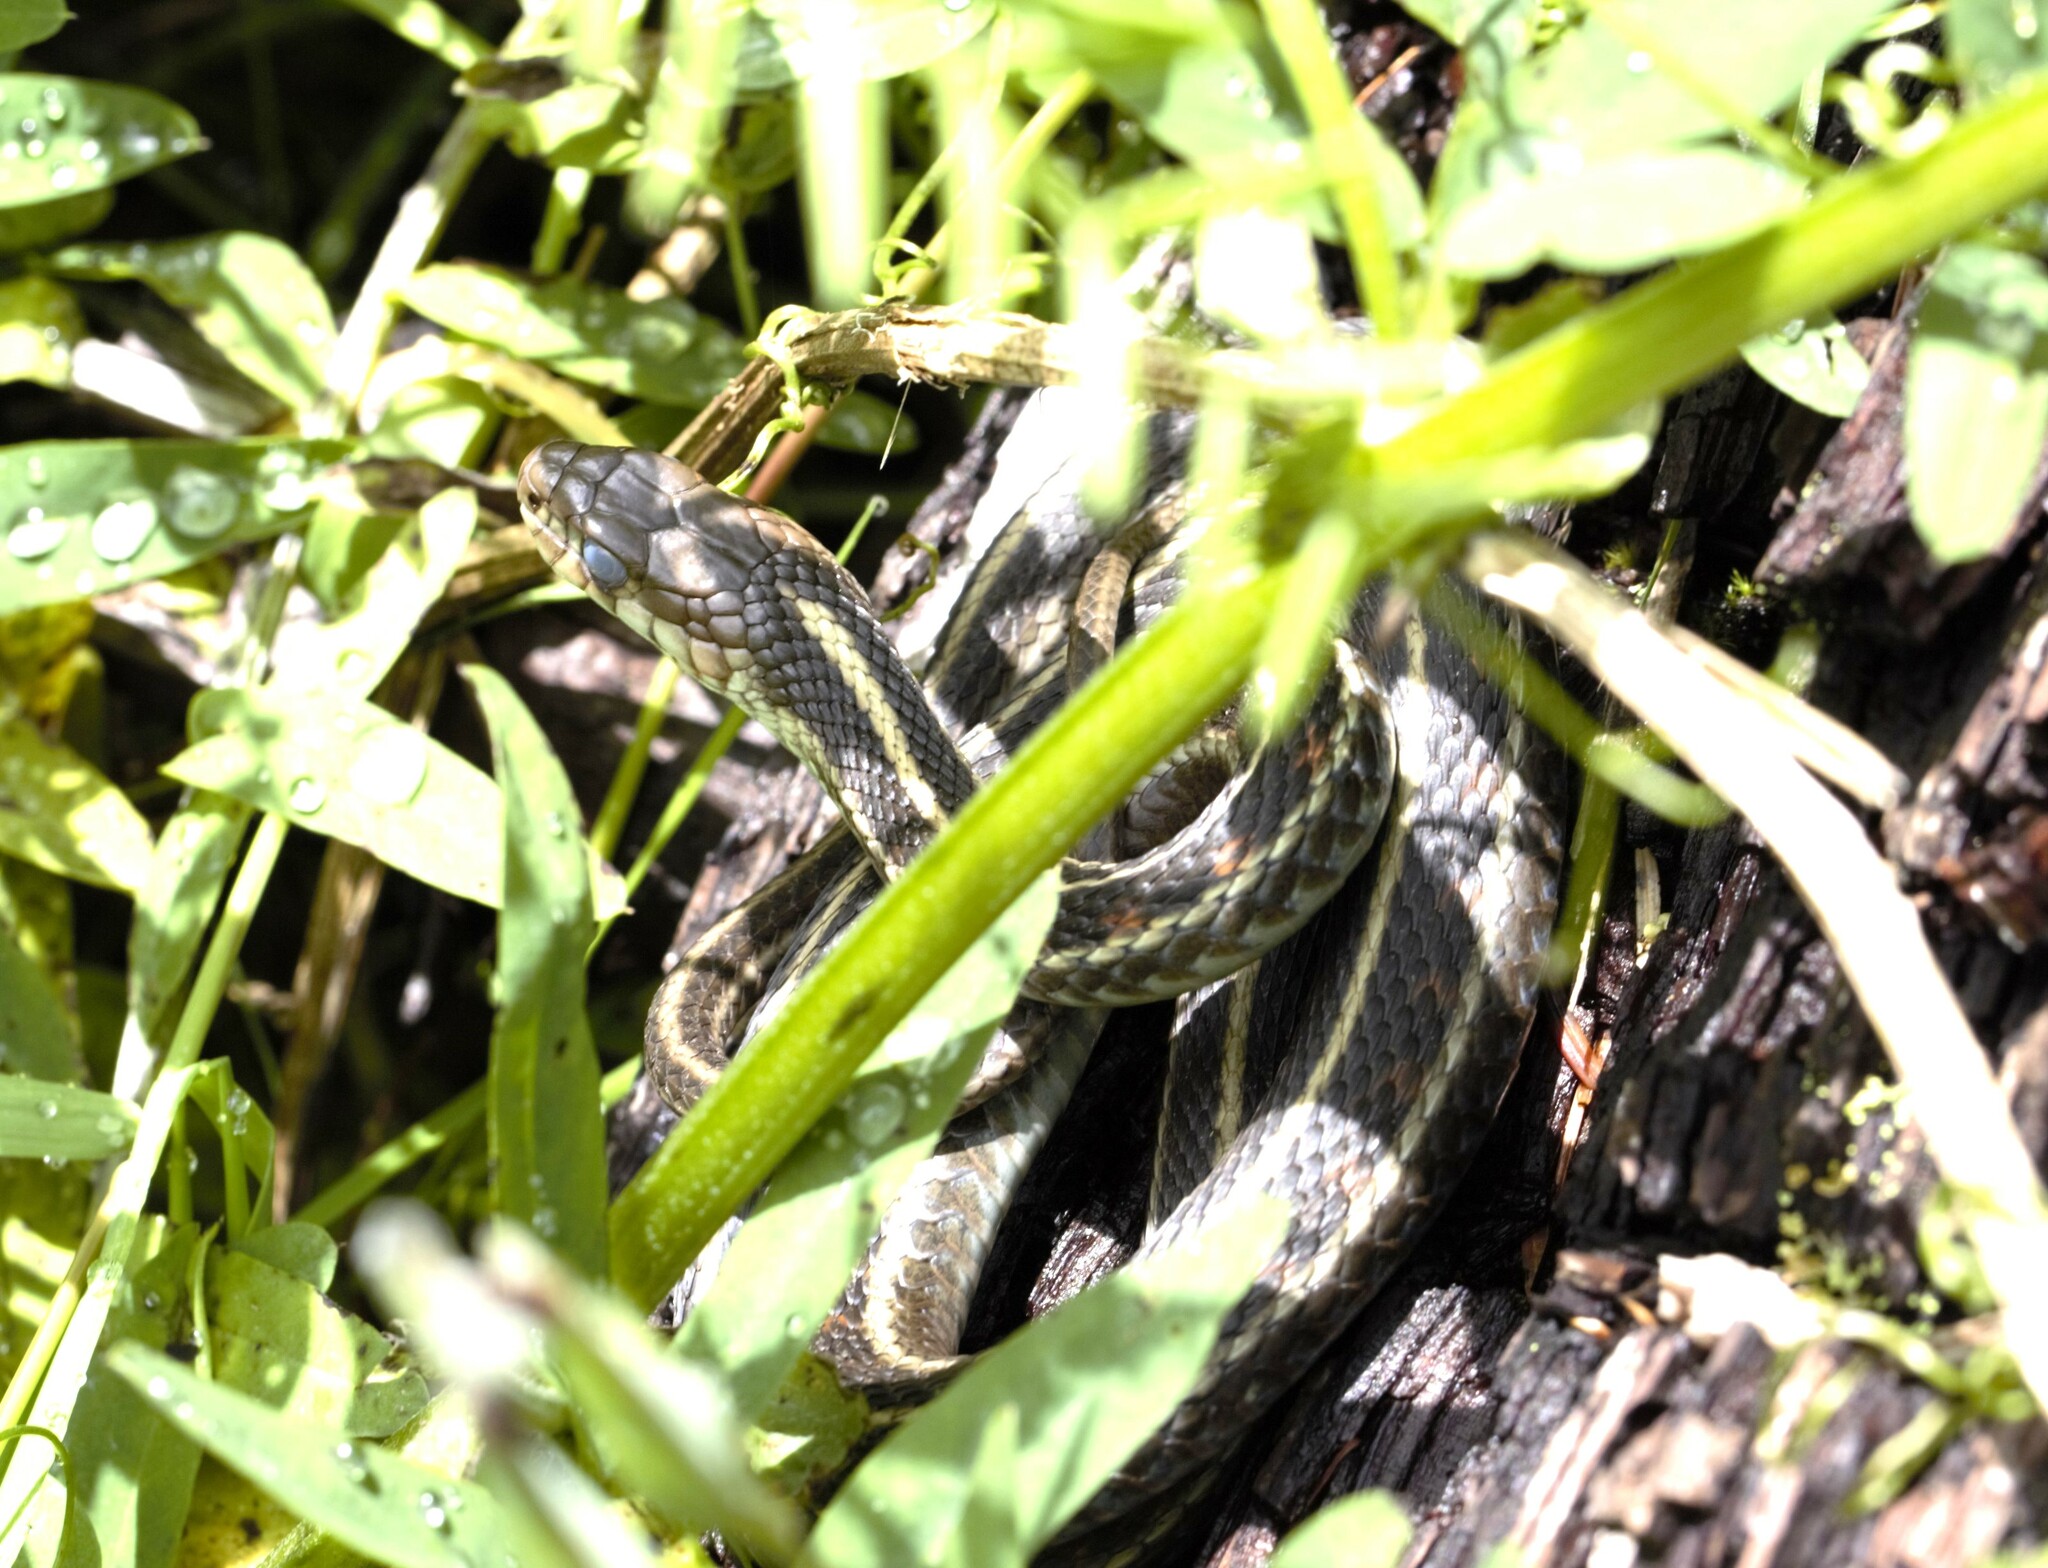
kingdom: Animalia
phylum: Chordata
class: Squamata
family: Colubridae
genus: Thamnophis
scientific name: Thamnophis sirtalis
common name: Common garter snake
